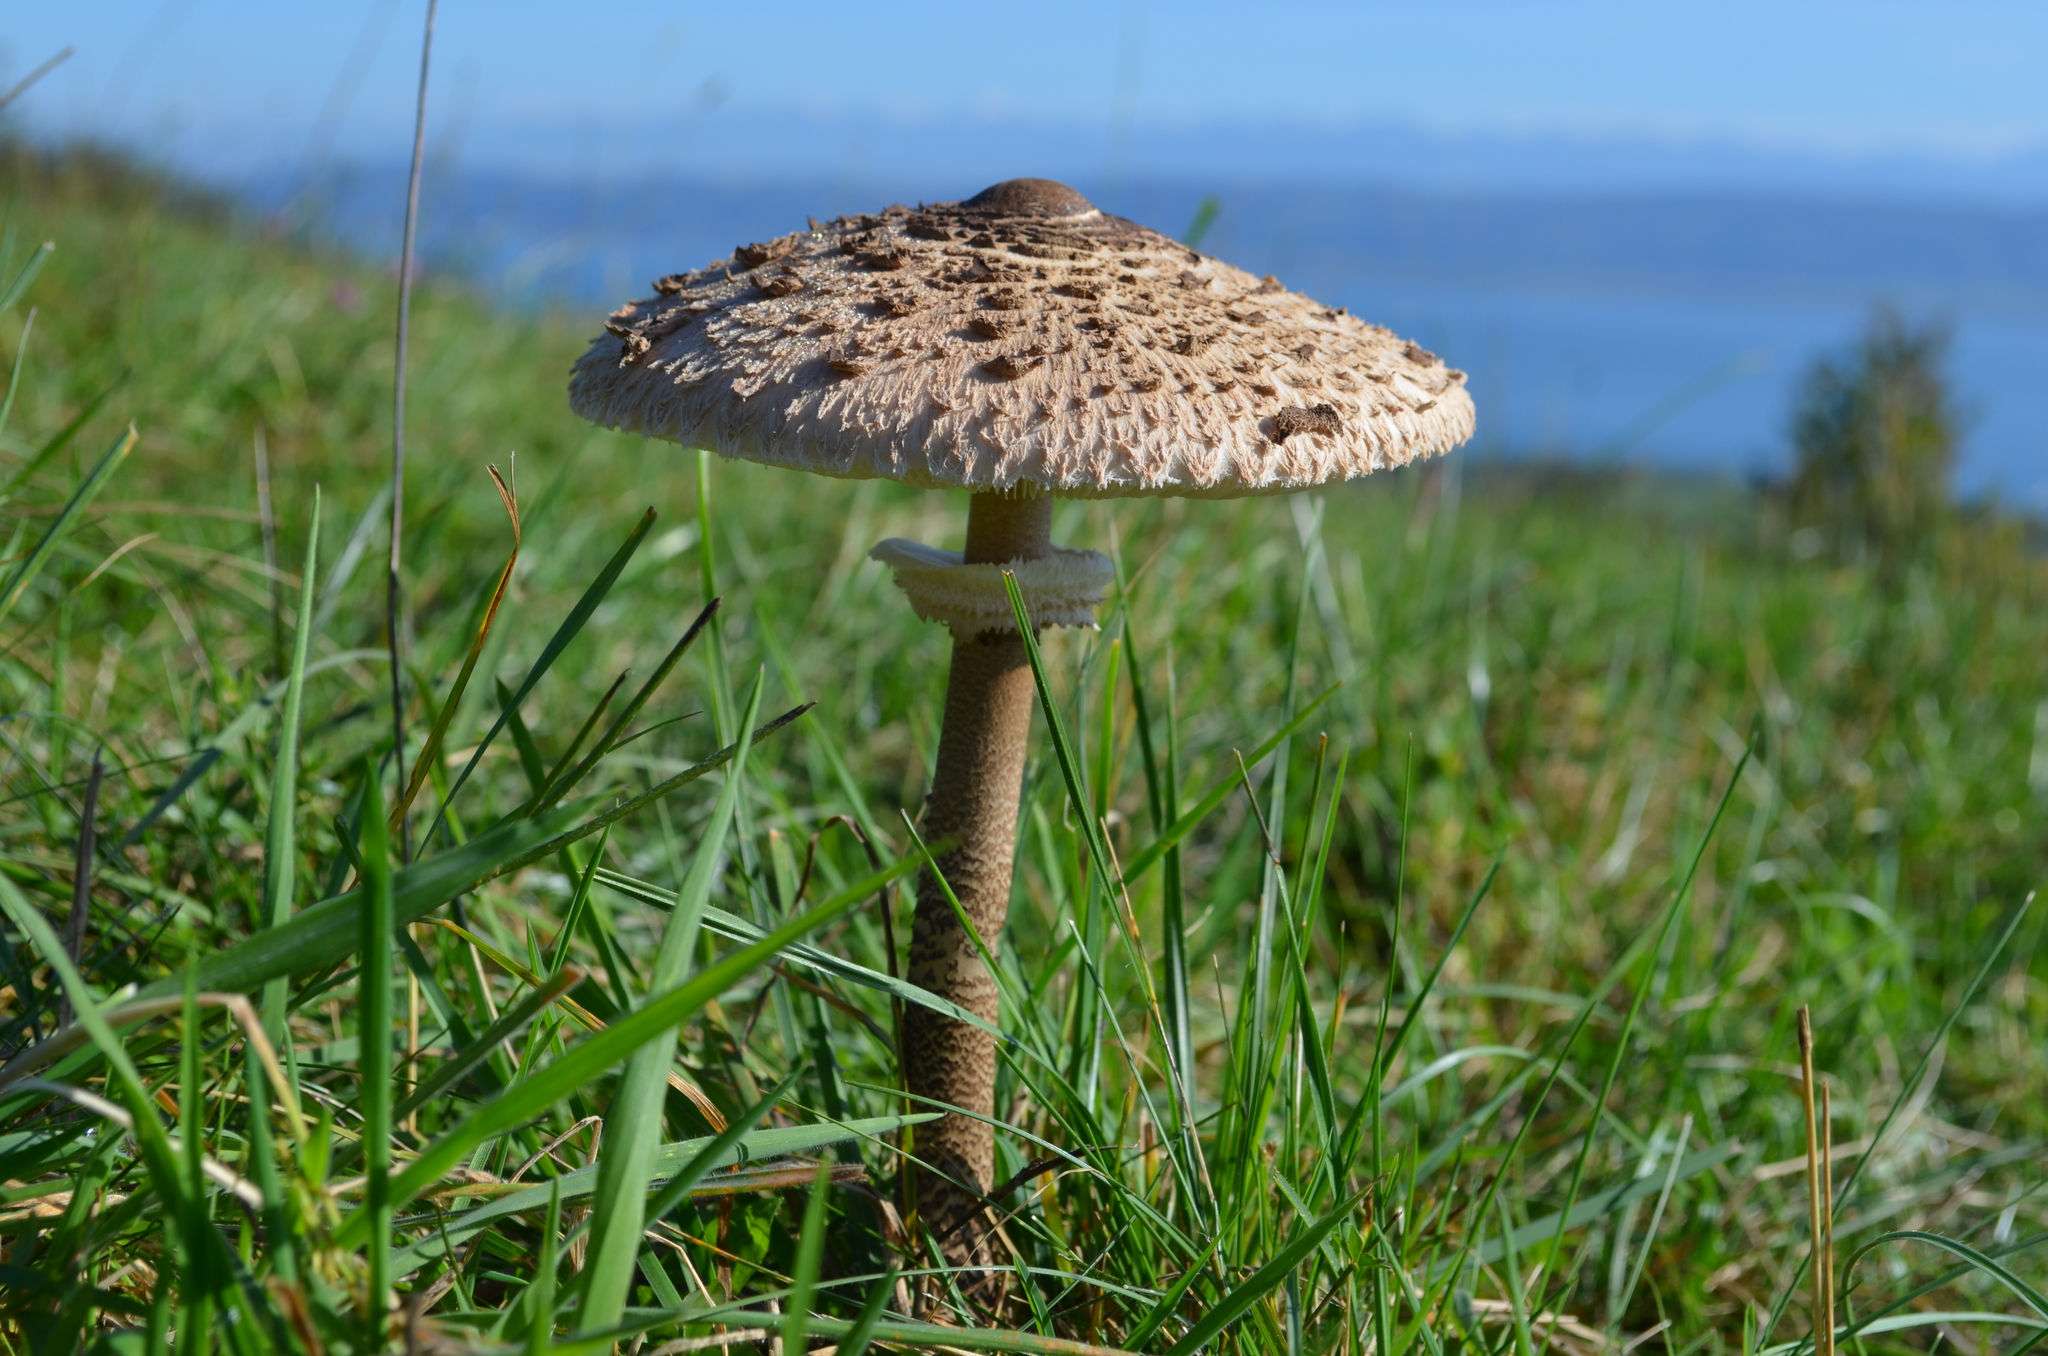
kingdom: Fungi
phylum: Basidiomycota
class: Agaricomycetes
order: Agaricales
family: Agaricaceae
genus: Macrolepiota
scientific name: Macrolepiota procera
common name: Parasol
